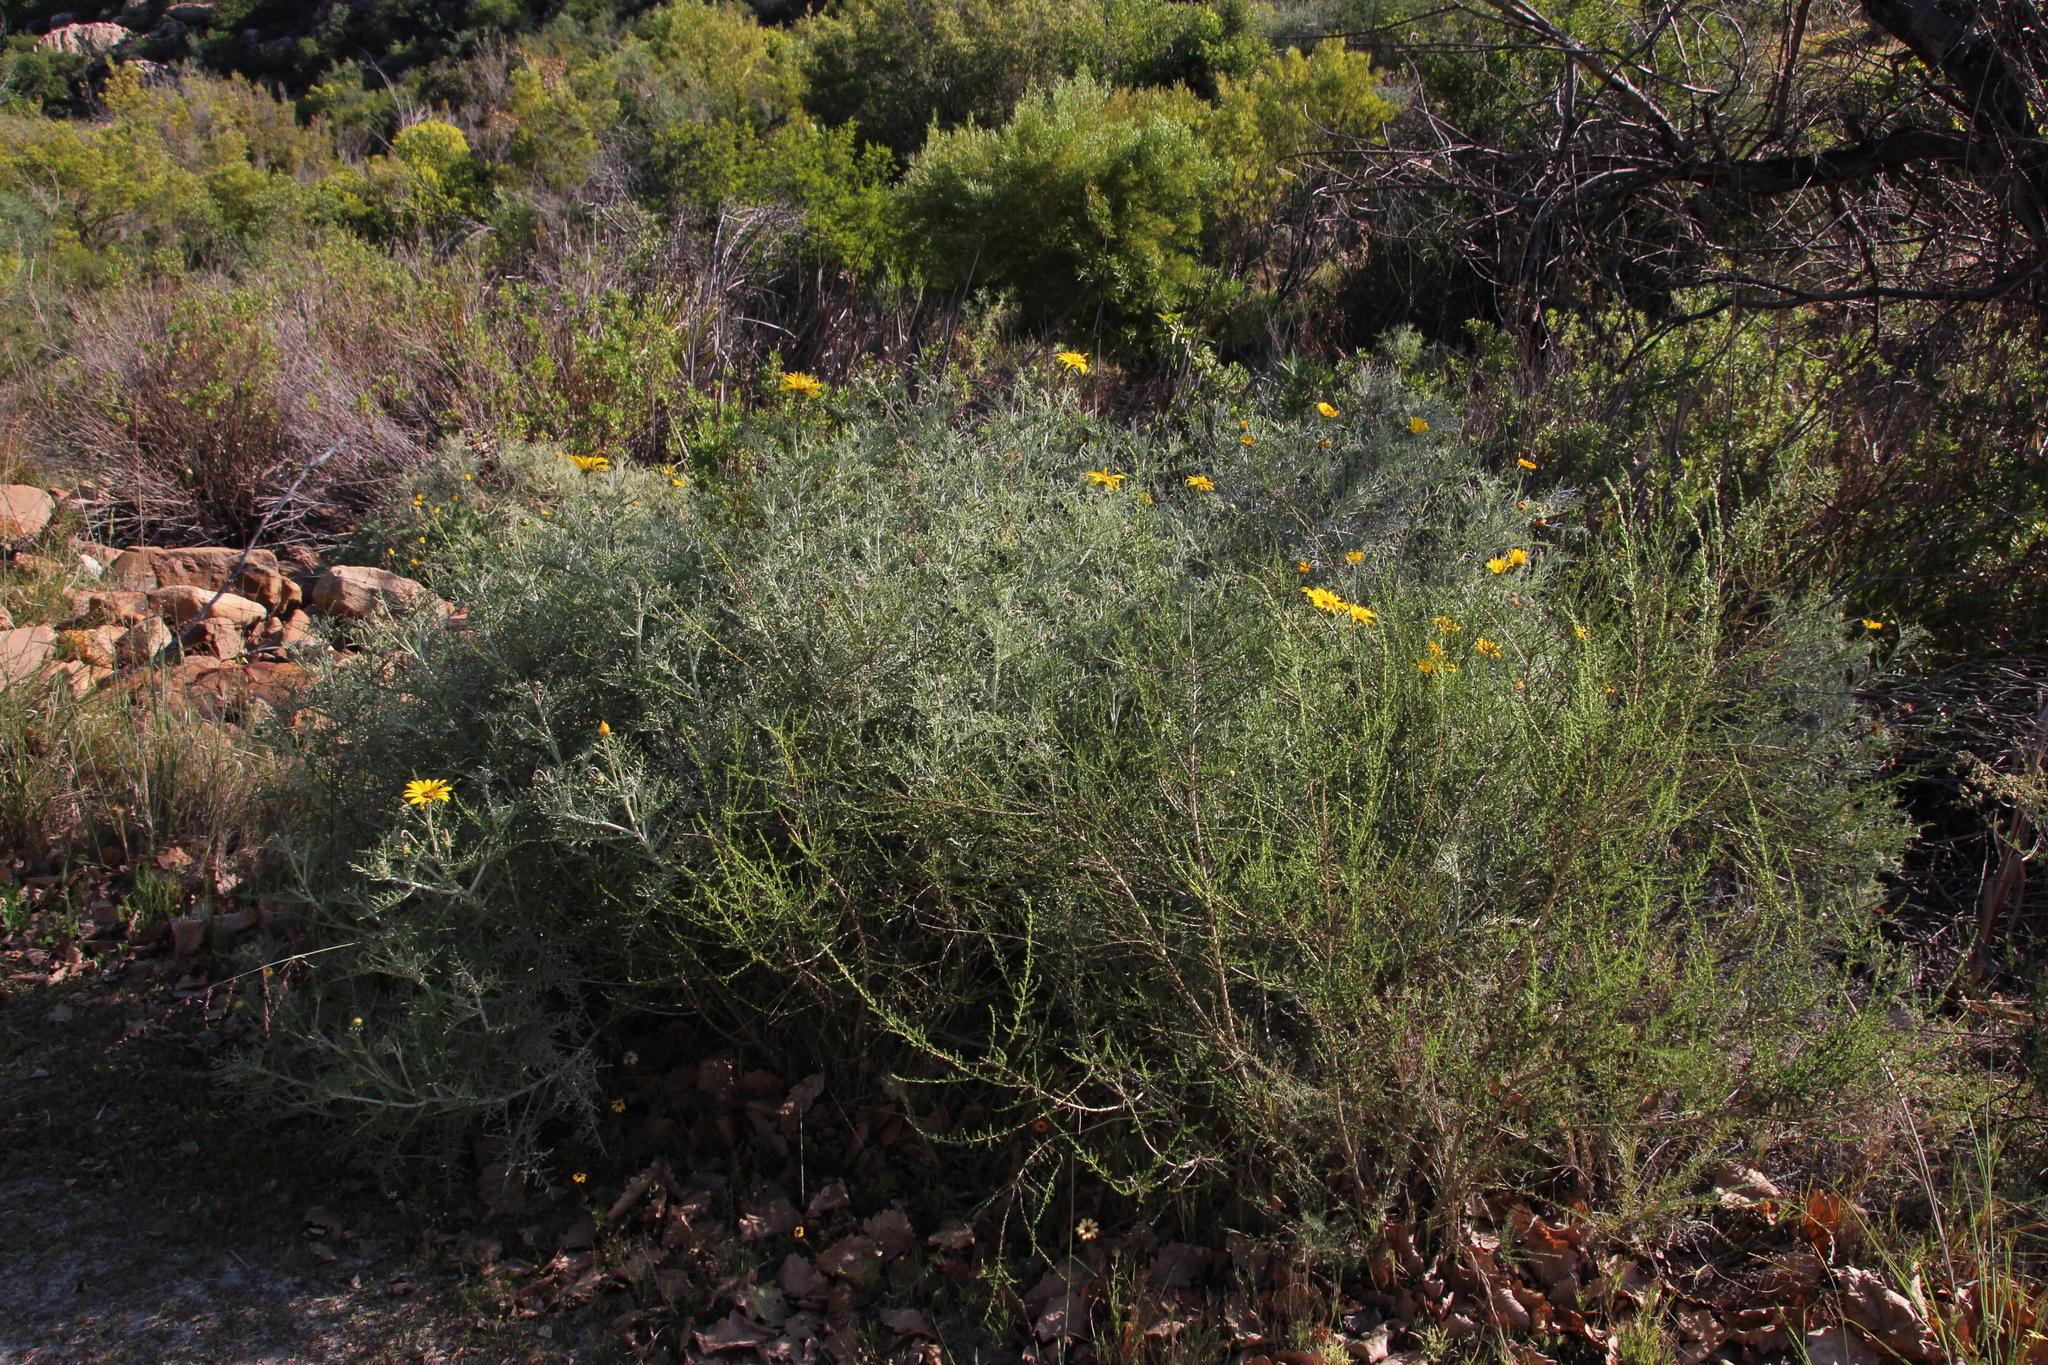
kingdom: Plantae
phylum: Tracheophyta
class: Magnoliopsida
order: Asterales
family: Asteraceae
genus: Arctotis
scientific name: Arctotis laciniata
